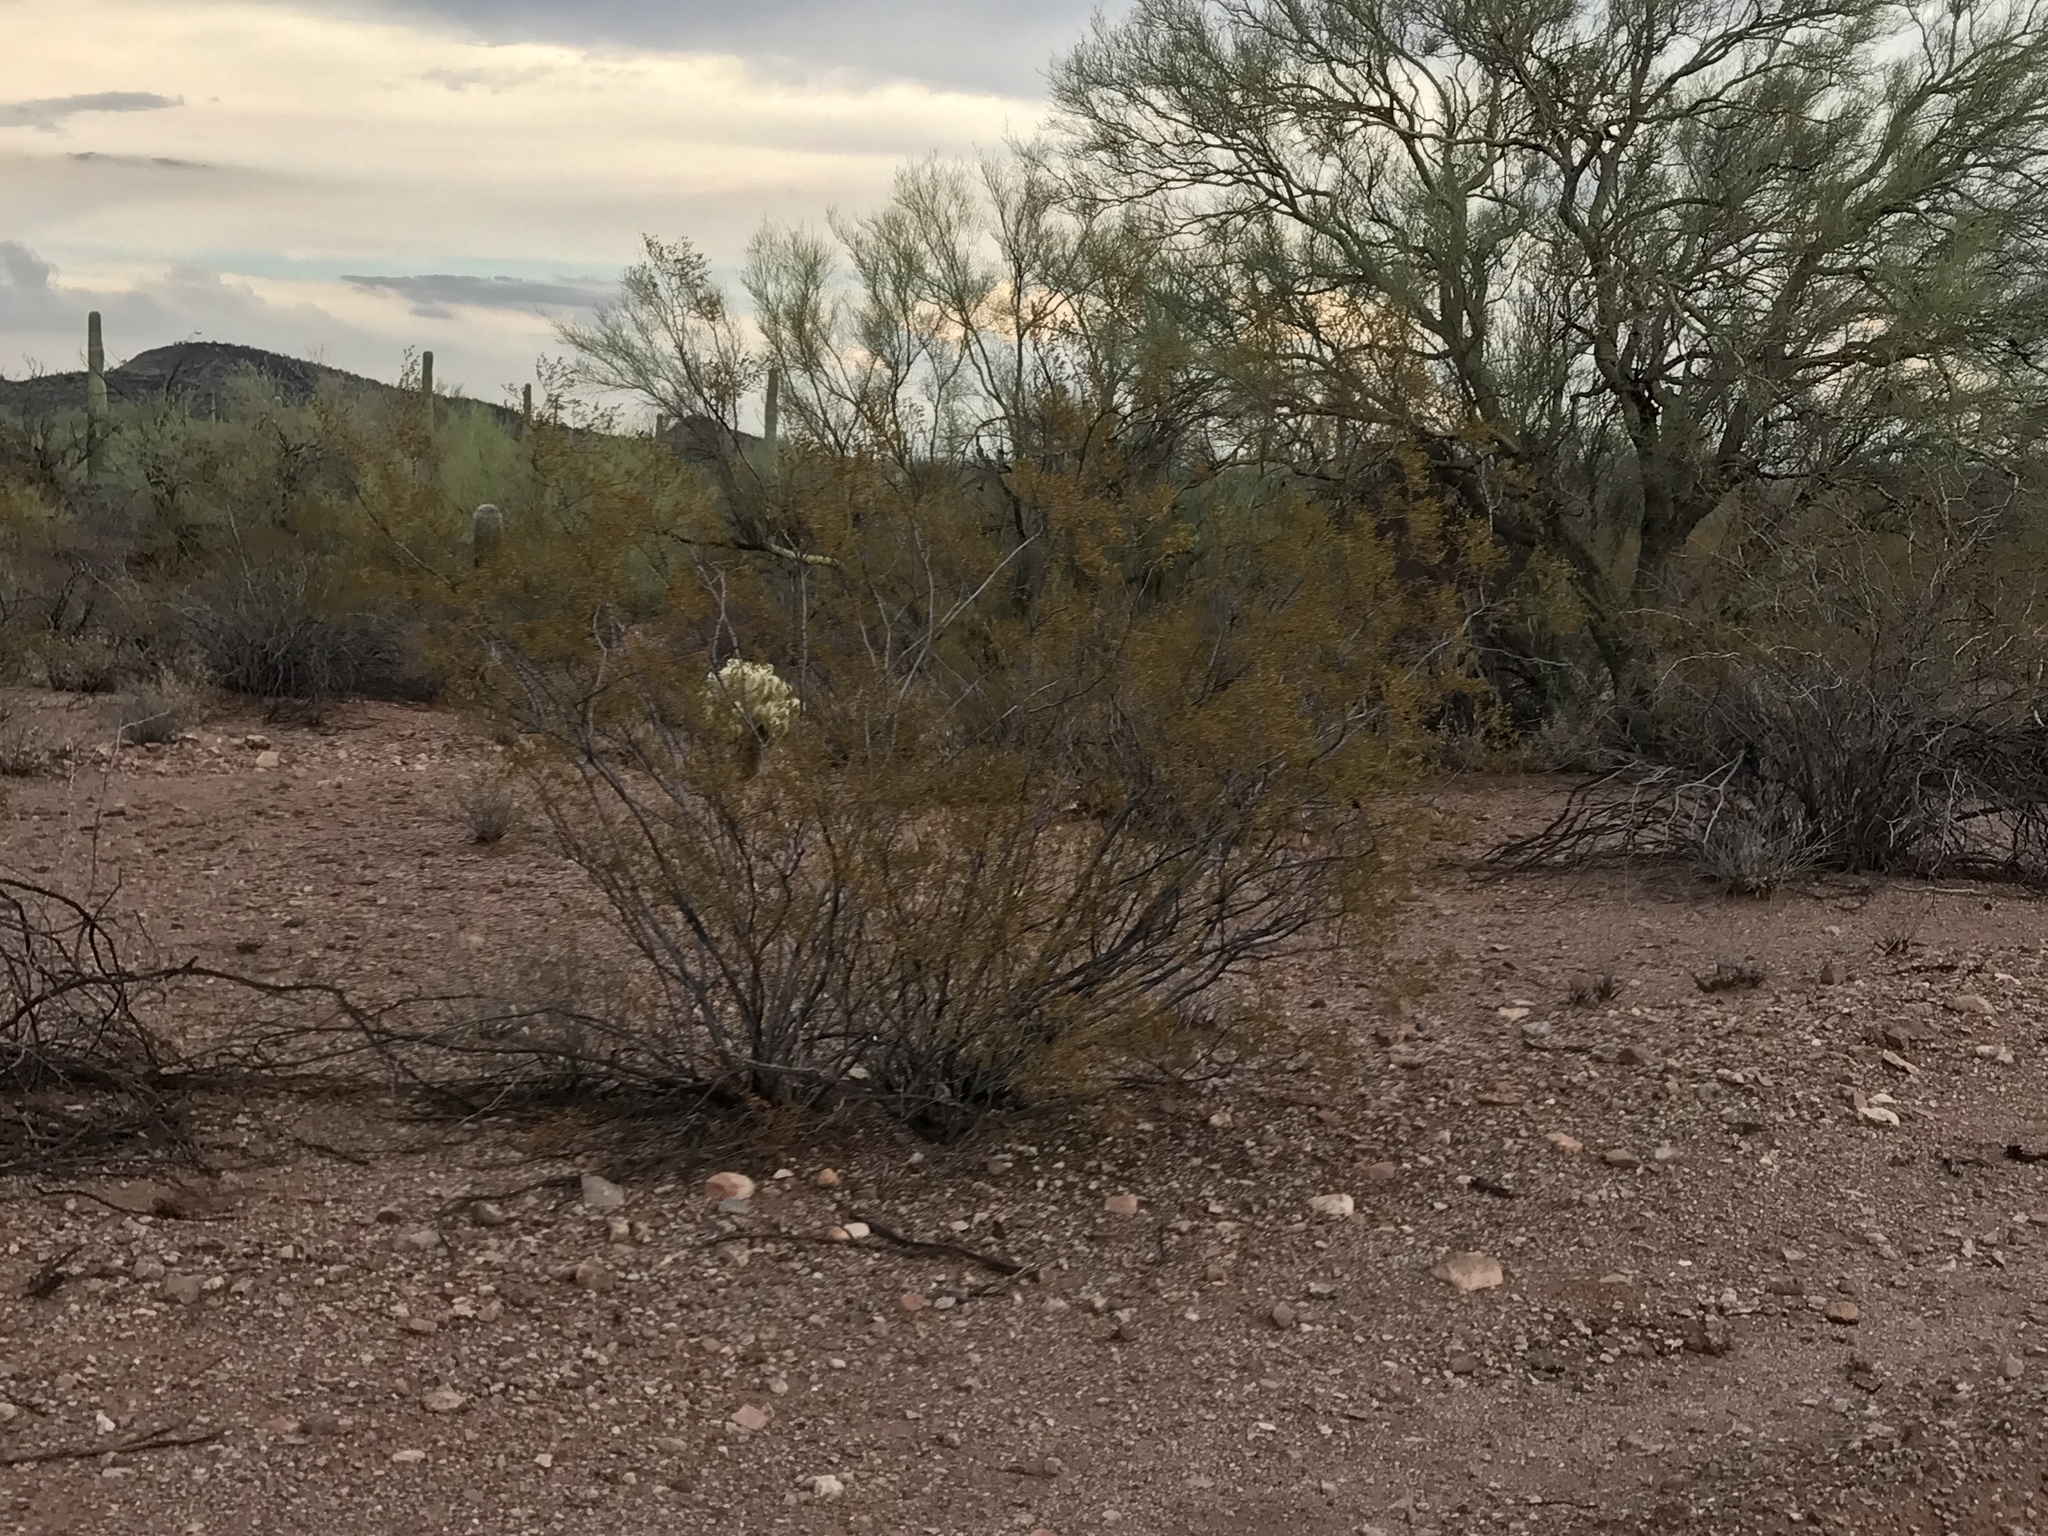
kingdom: Plantae
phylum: Tracheophyta
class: Magnoliopsida
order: Zygophyllales
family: Zygophyllaceae
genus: Larrea
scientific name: Larrea tridentata
